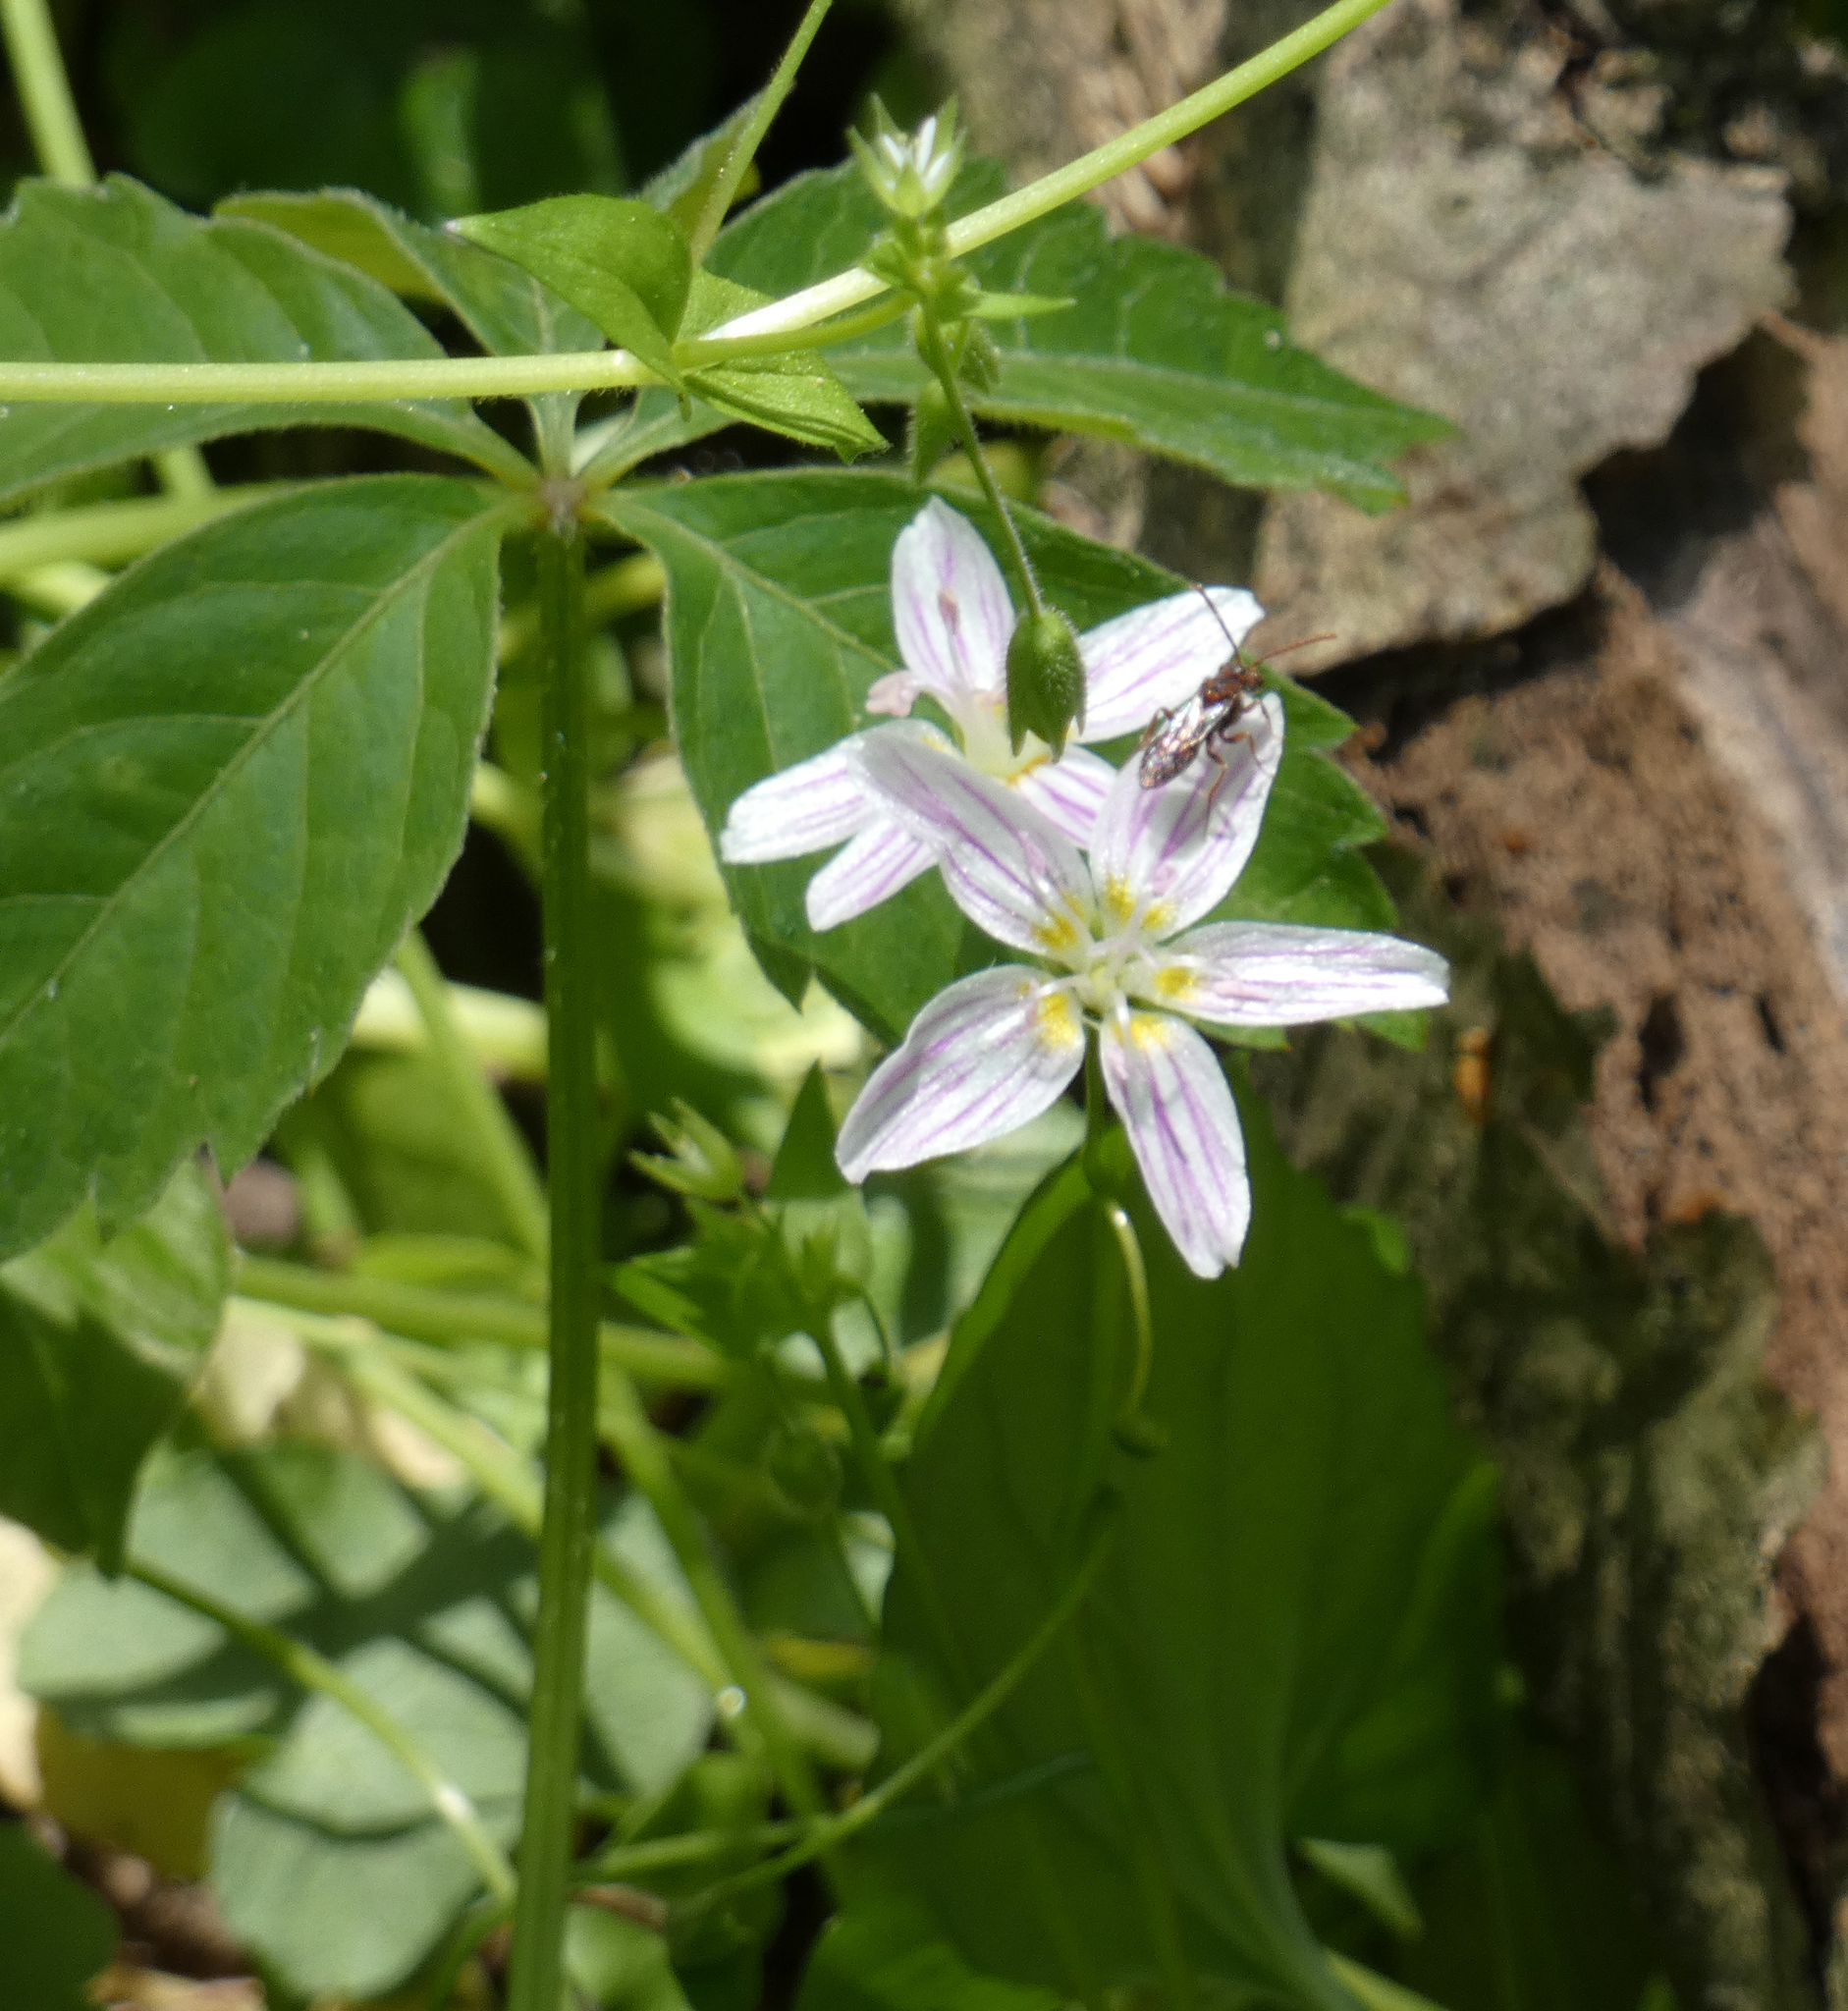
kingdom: Plantae
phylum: Tracheophyta
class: Magnoliopsida
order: Caryophyllales
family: Montiaceae
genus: Claytonia
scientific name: Claytonia virginica
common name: Virginia springbeauty
